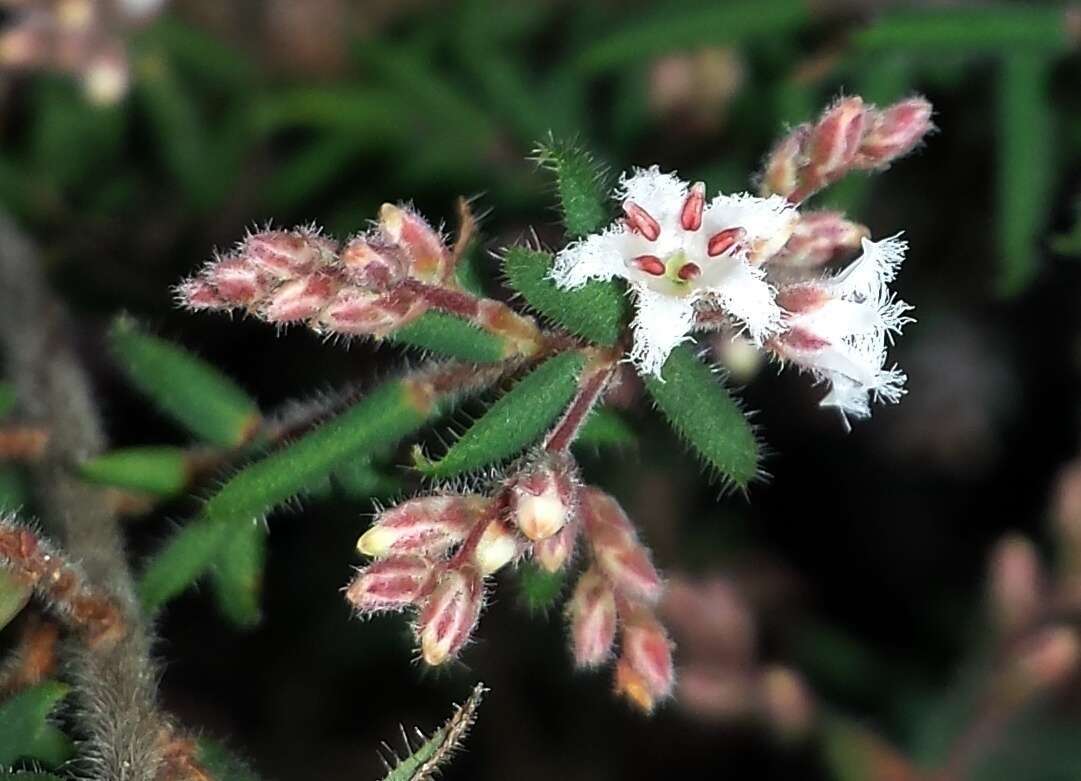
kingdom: Plantae
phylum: Tracheophyta
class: Magnoliopsida
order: Ericales
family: Ericaceae
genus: Leucopogon
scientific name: Leucopogon thymifolius
